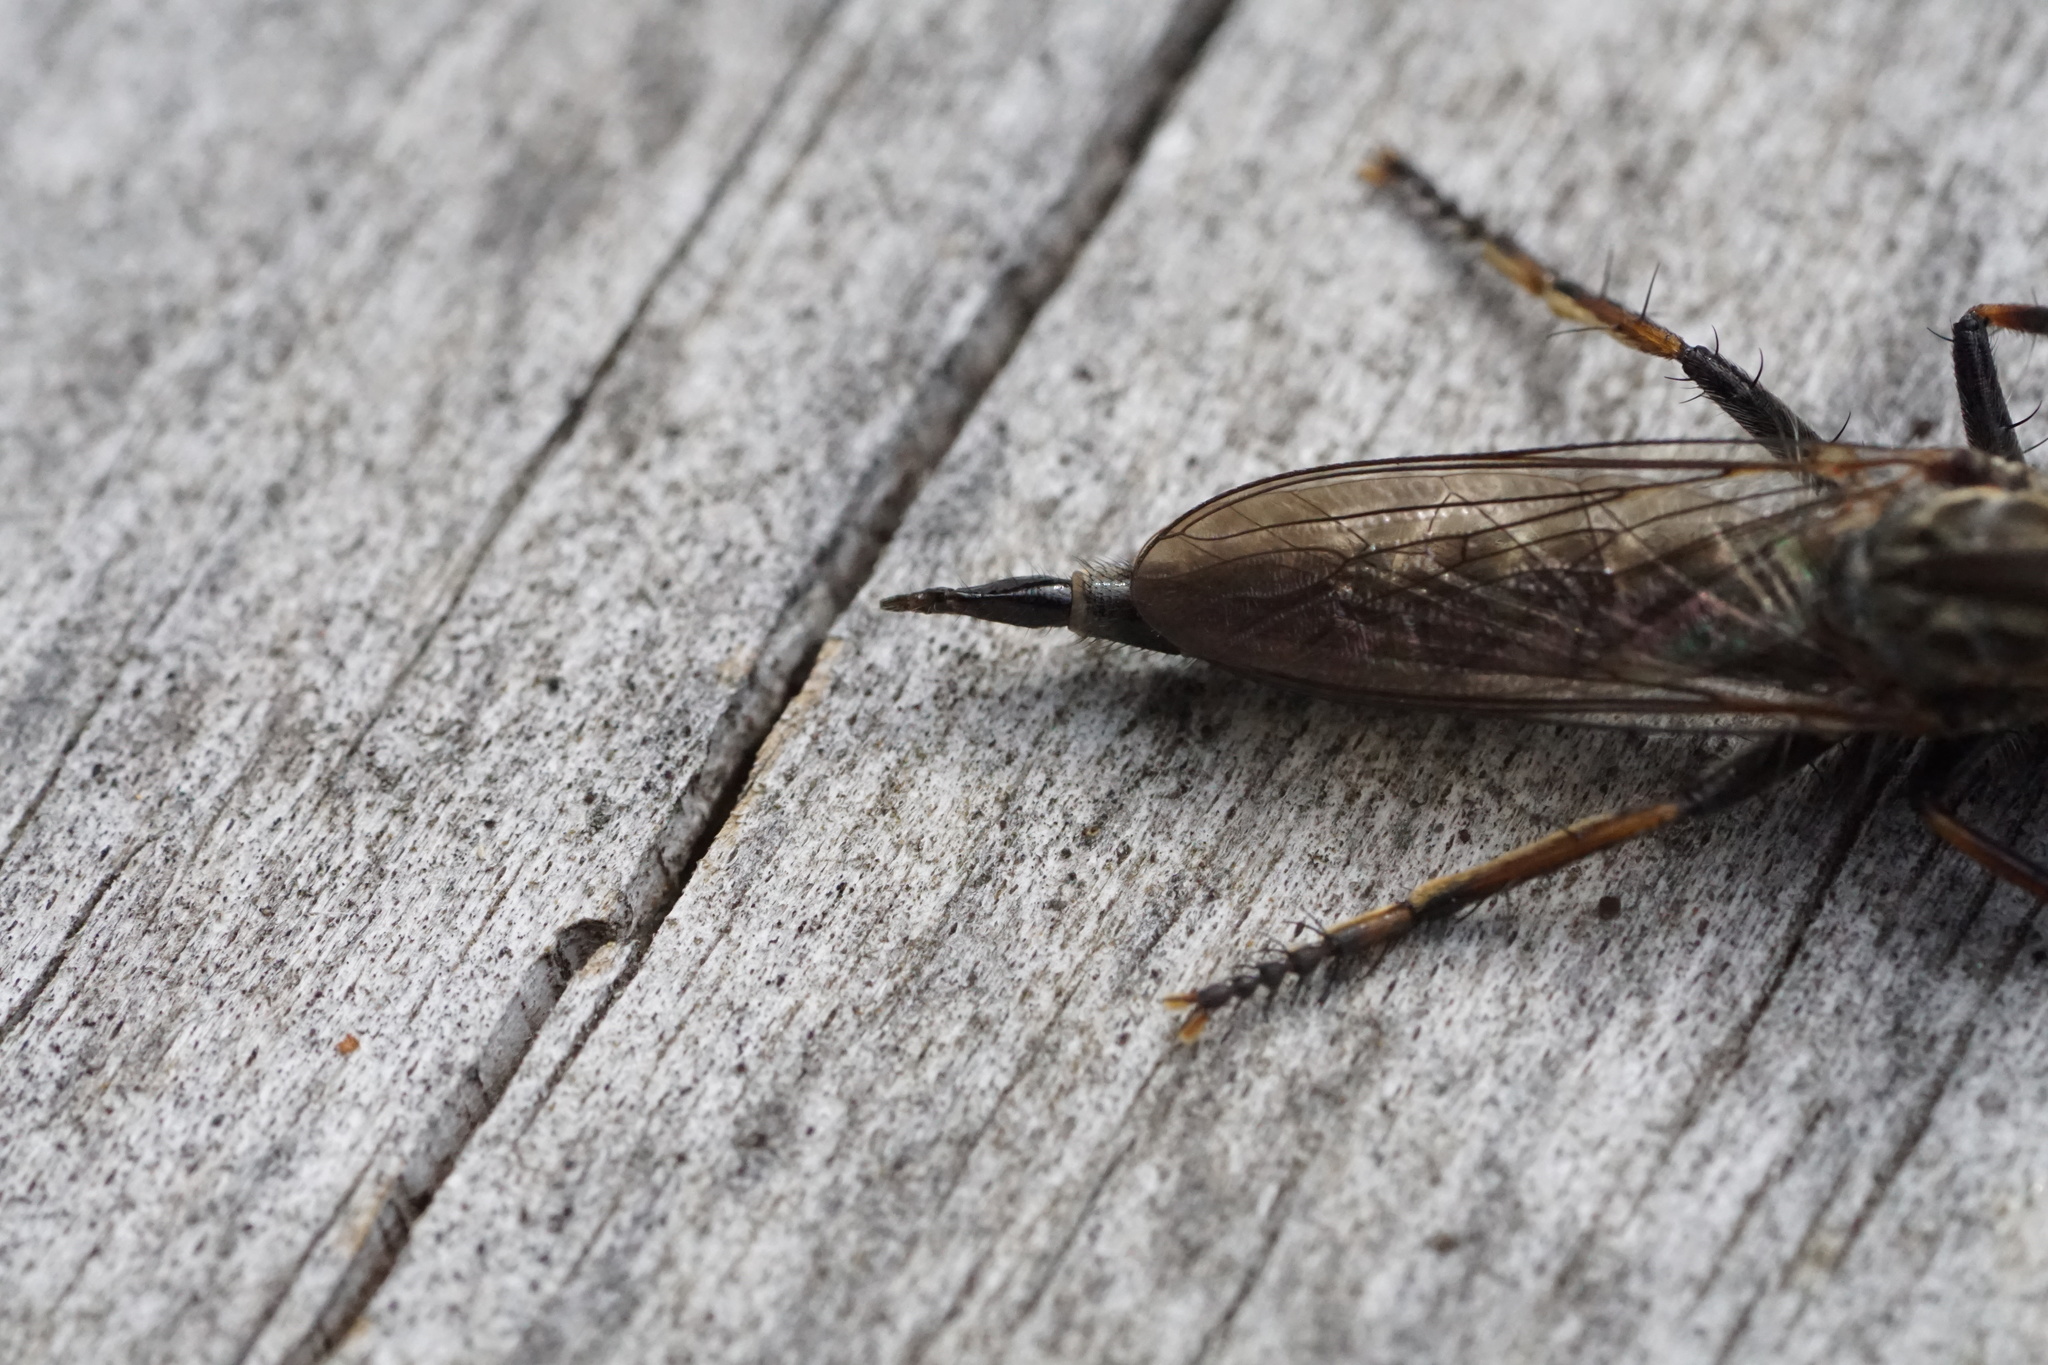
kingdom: Animalia
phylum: Arthropoda
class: Insecta
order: Diptera
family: Asilidae
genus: Machimus
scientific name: Machimus sadyates
